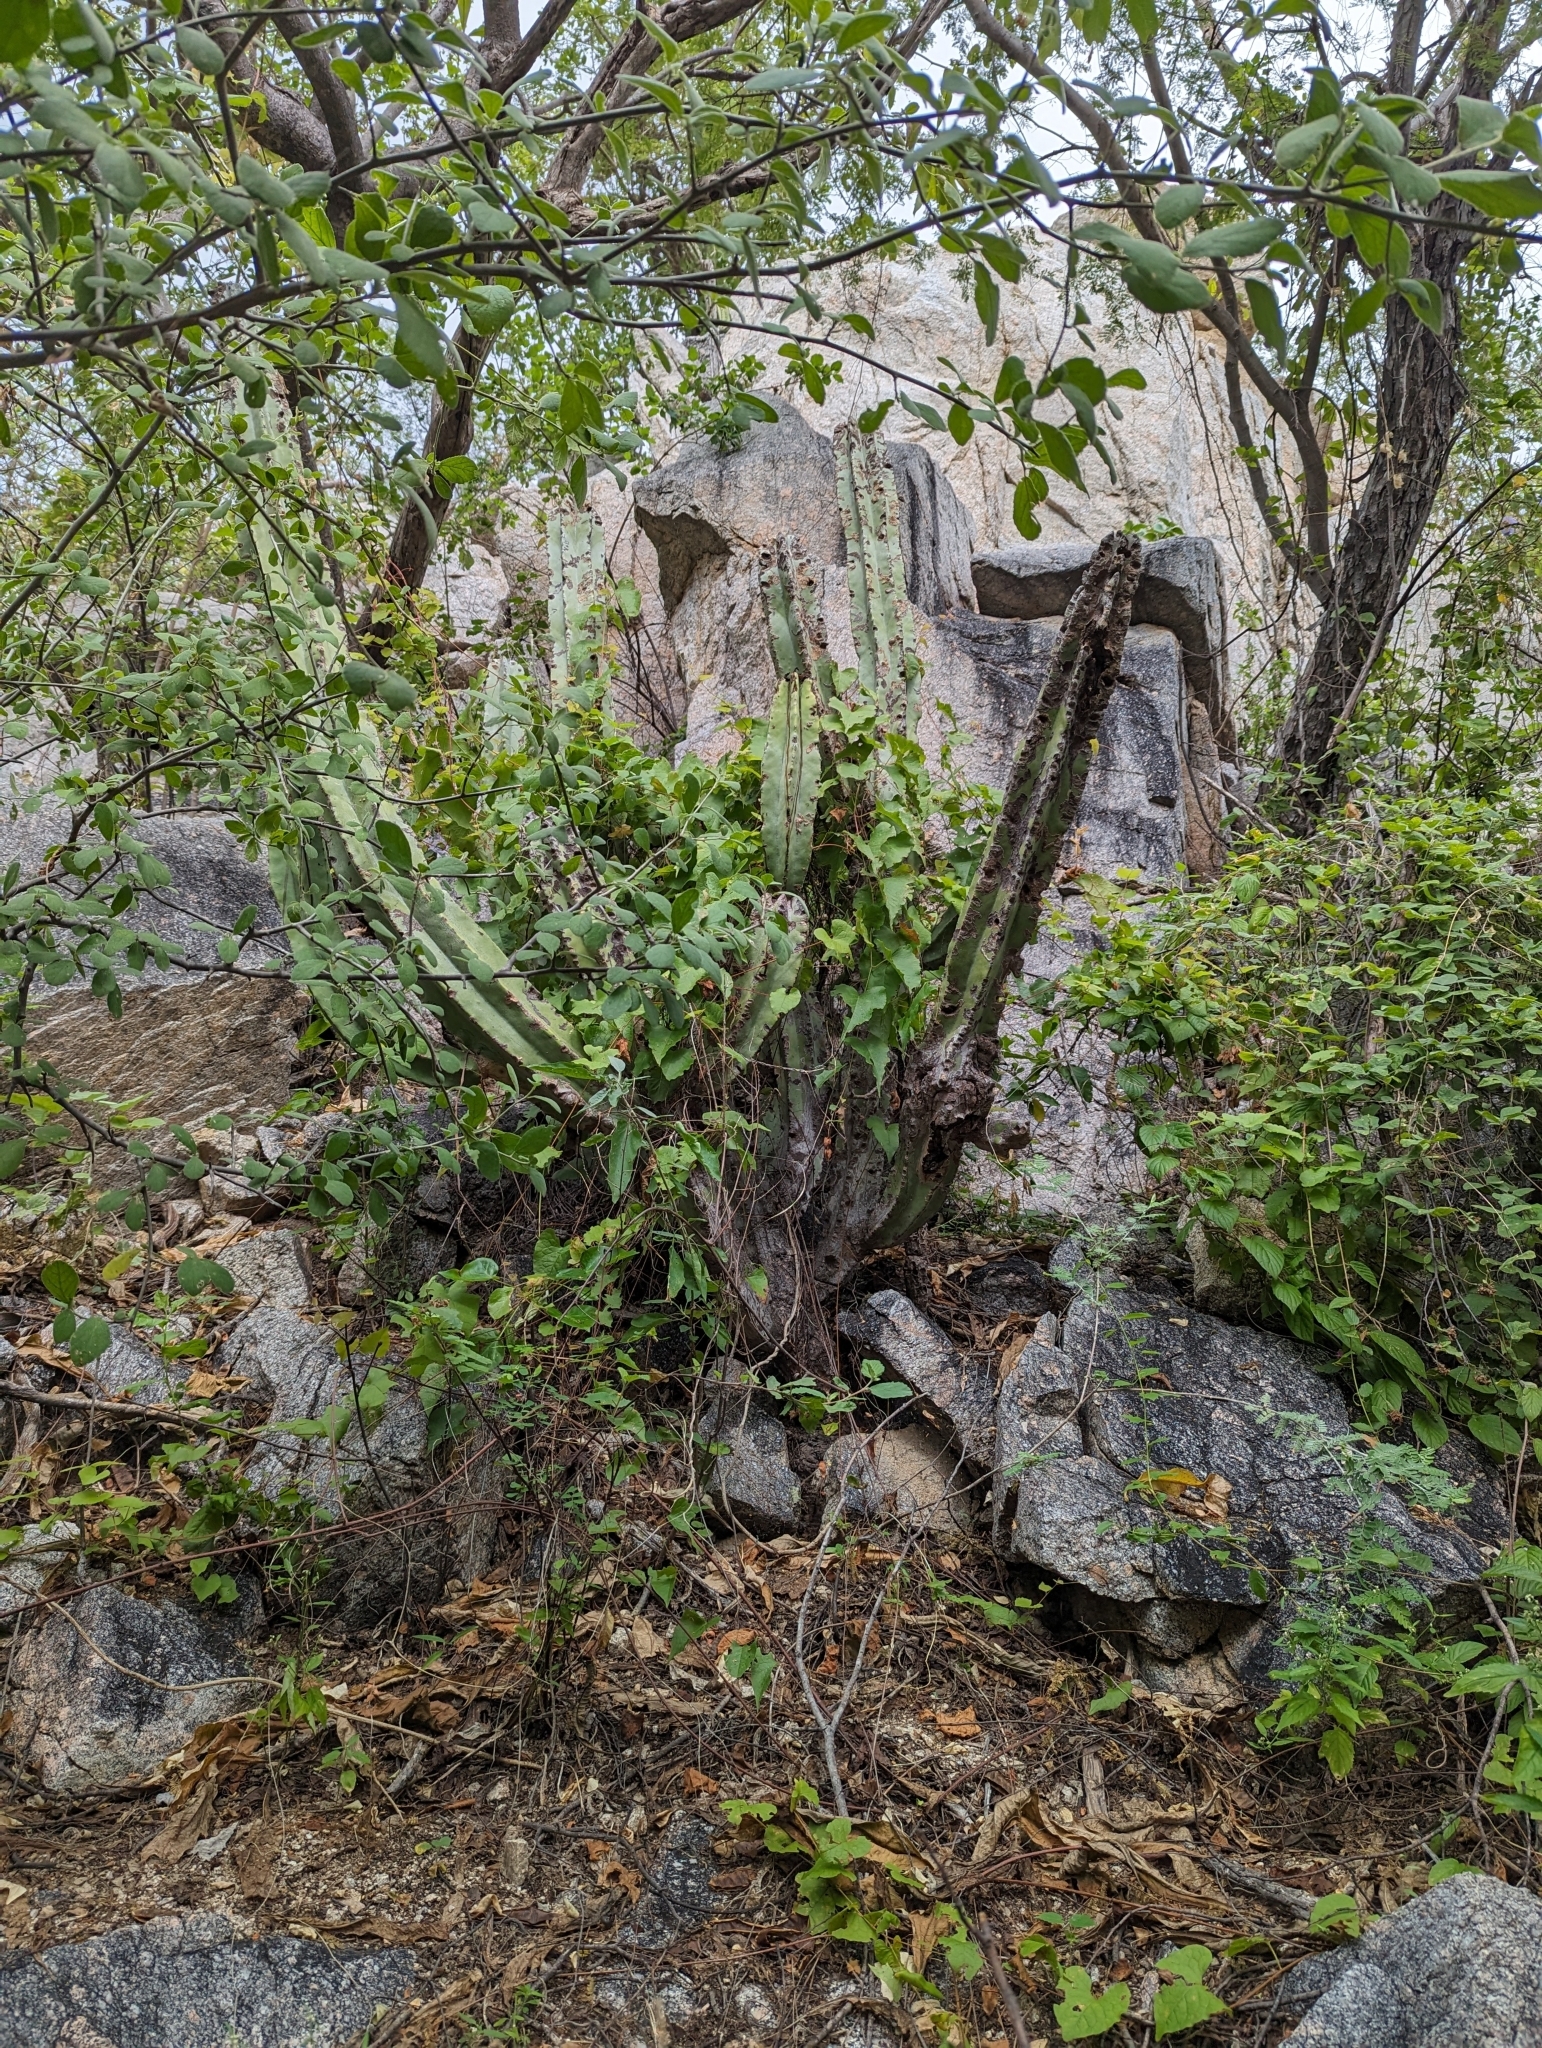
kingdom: Plantae
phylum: Tracheophyta
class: Magnoliopsida
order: Caryophyllales
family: Cactaceae
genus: Pachycereus
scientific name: Pachycereus schottii
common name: Senita cactus
